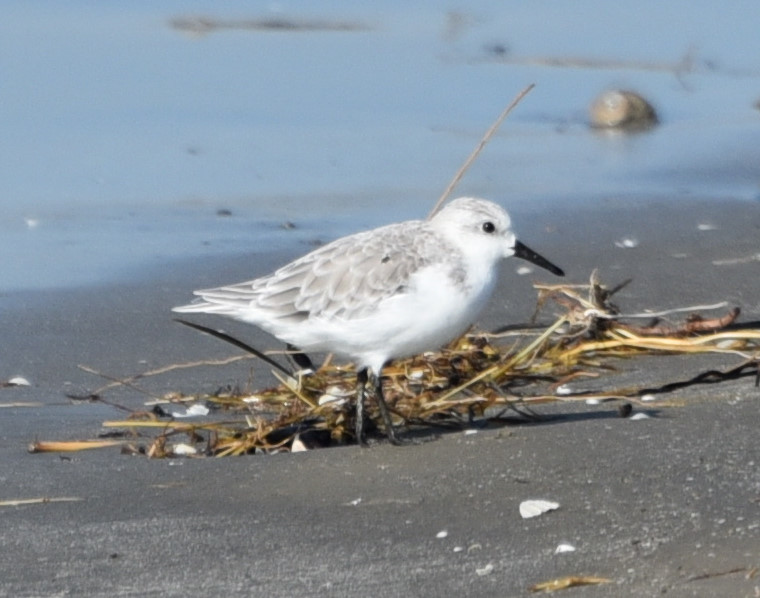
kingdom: Animalia
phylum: Chordata
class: Aves
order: Charadriiformes
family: Scolopacidae
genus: Calidris
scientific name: Calidris alba
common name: Sanderling
